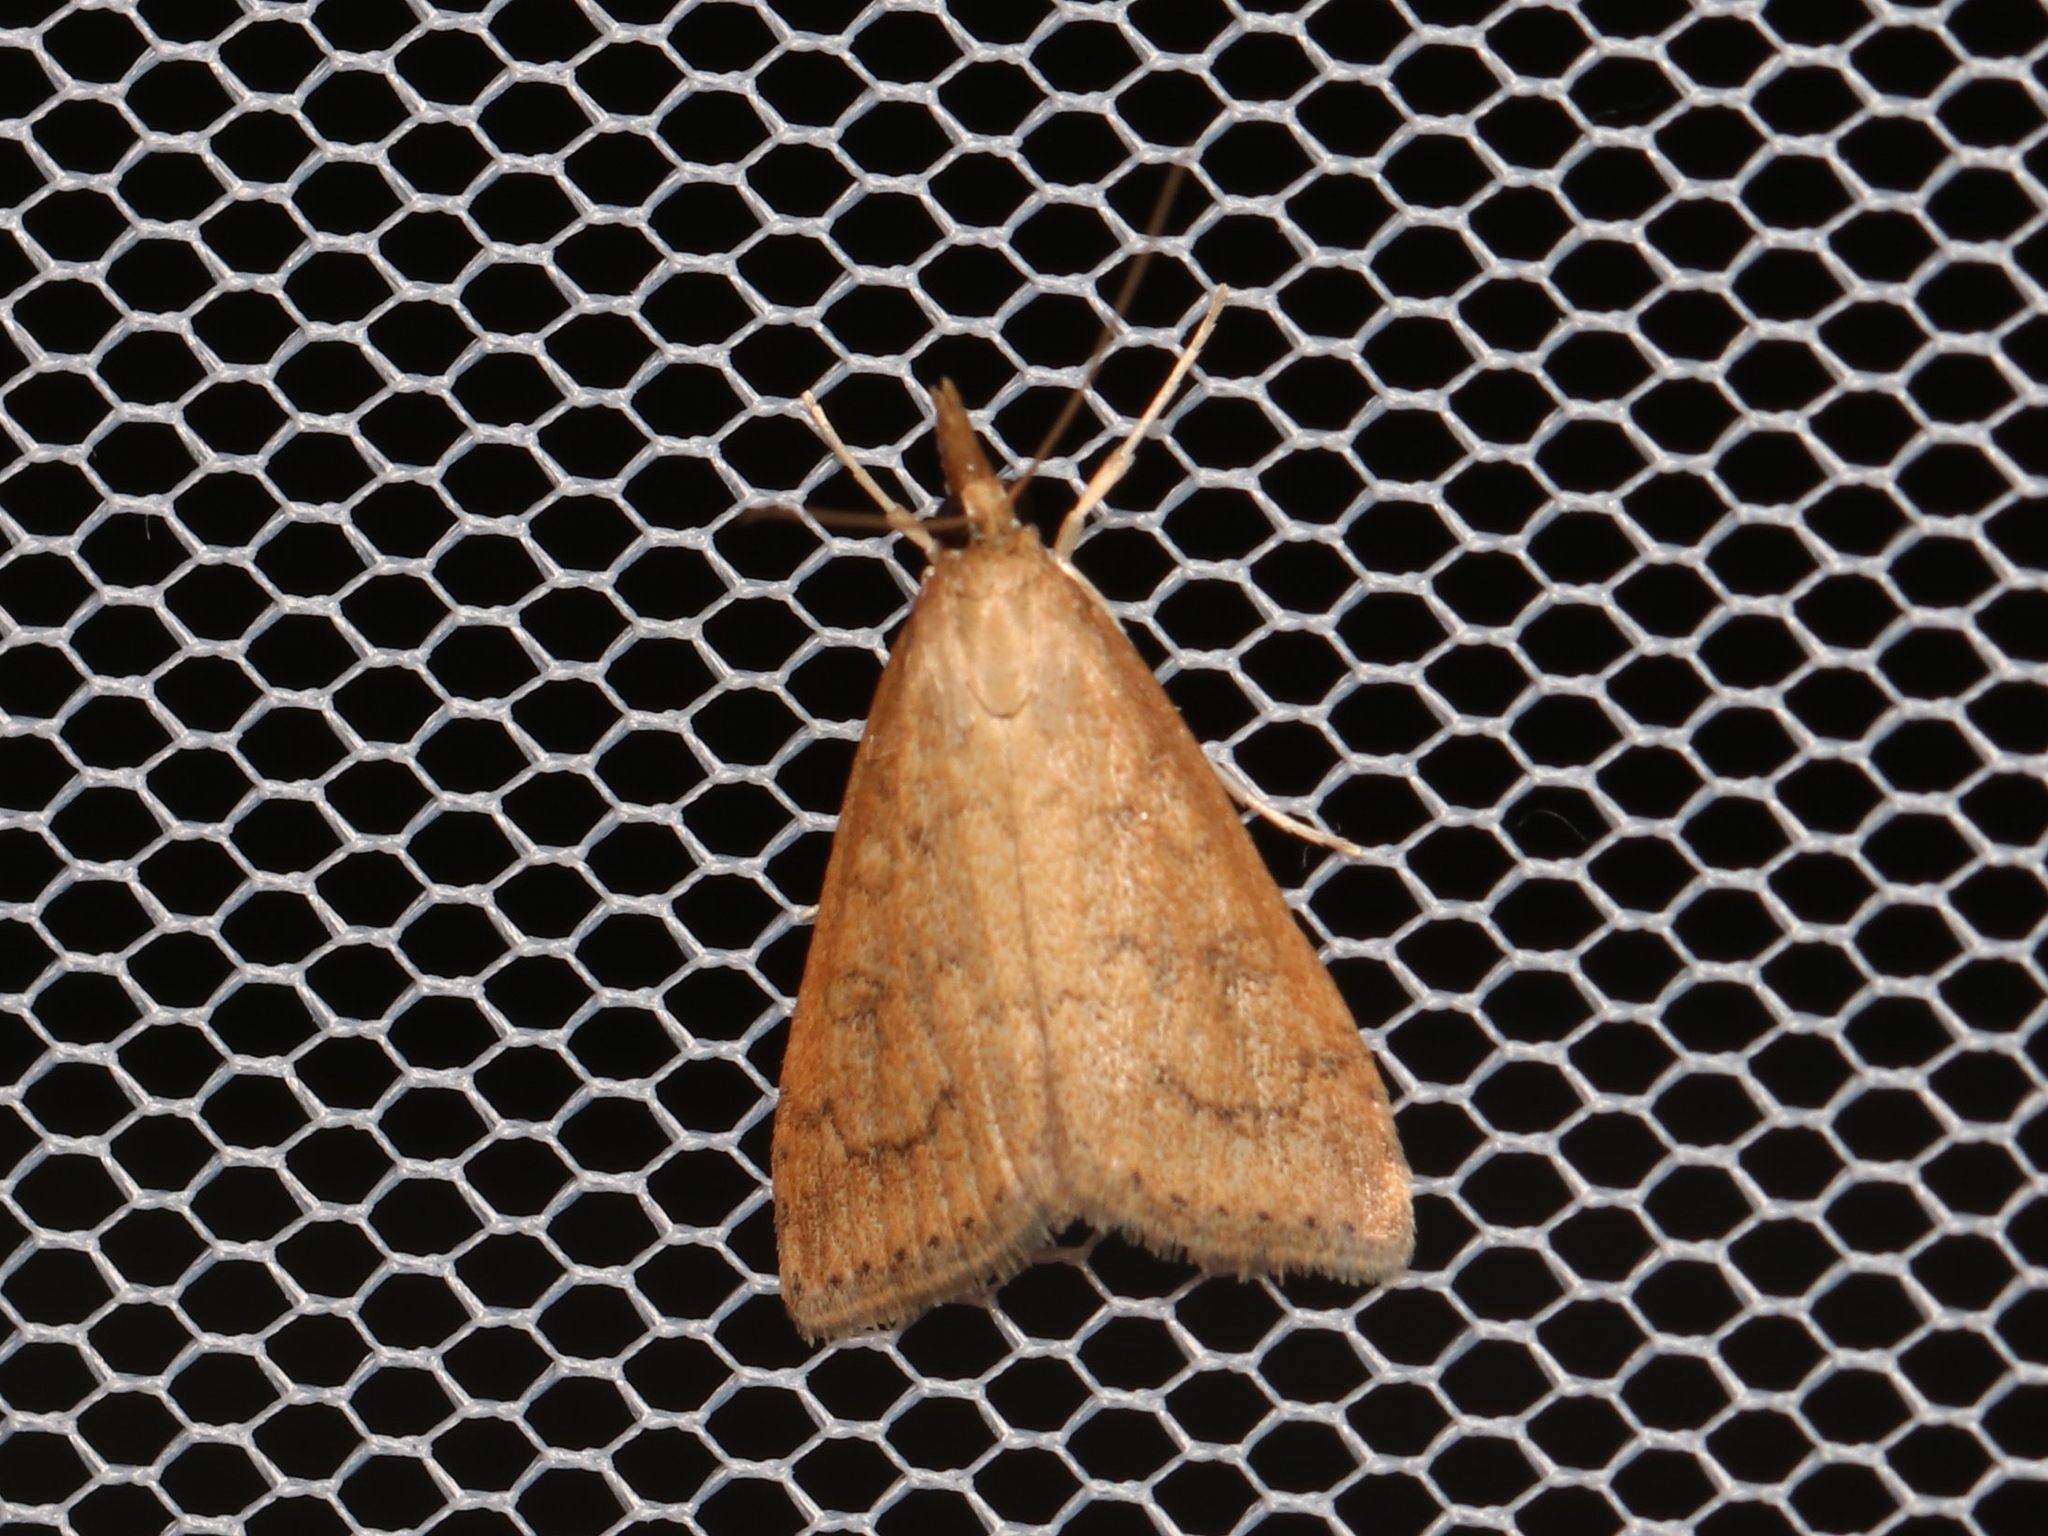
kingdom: Animalia
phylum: Arthropoda
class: Insecta
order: Lepidoptera
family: Crambidae
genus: Udea
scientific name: Udea rubigalis
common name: Celery leaftier moth
